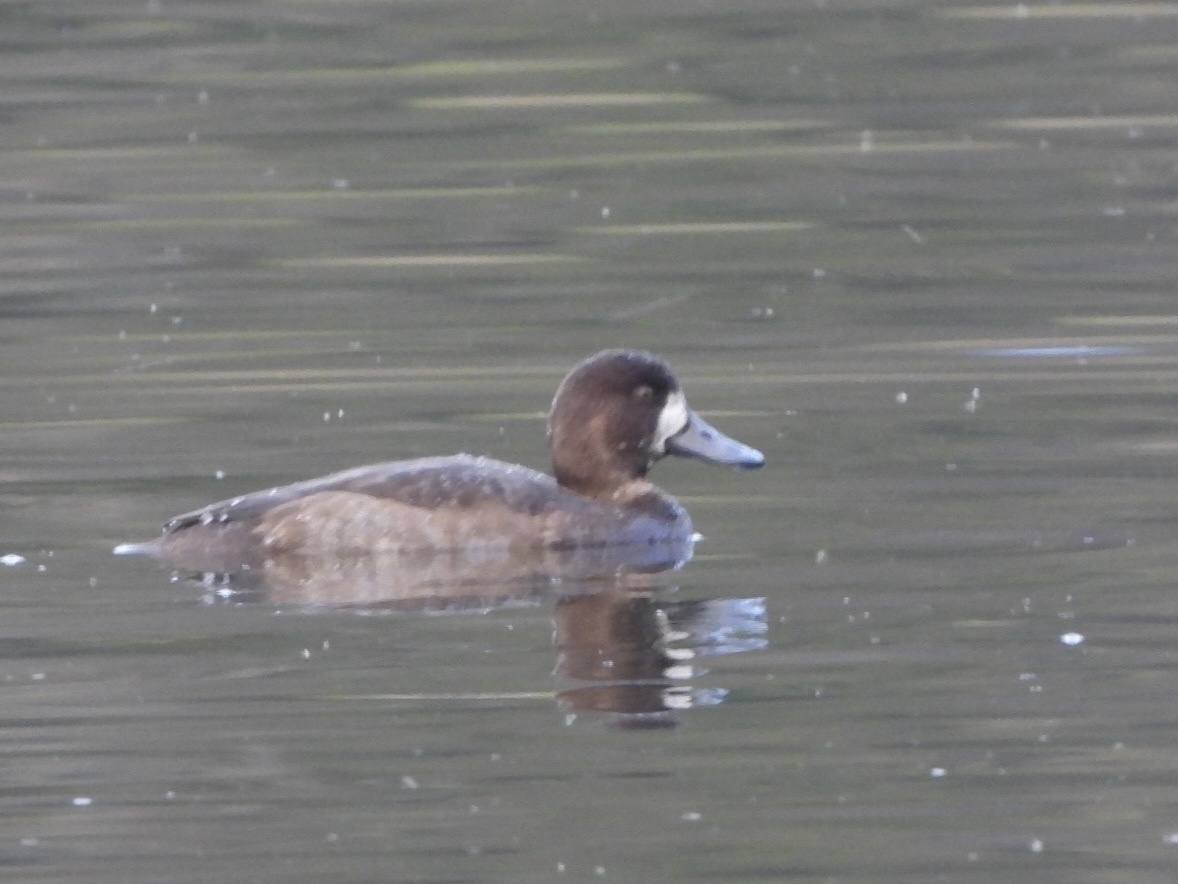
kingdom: Animalia
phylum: Chordata
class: Aves
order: Anseriformes
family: Anatidae
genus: Aythya
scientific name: Aythya marila
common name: Greater scaup
